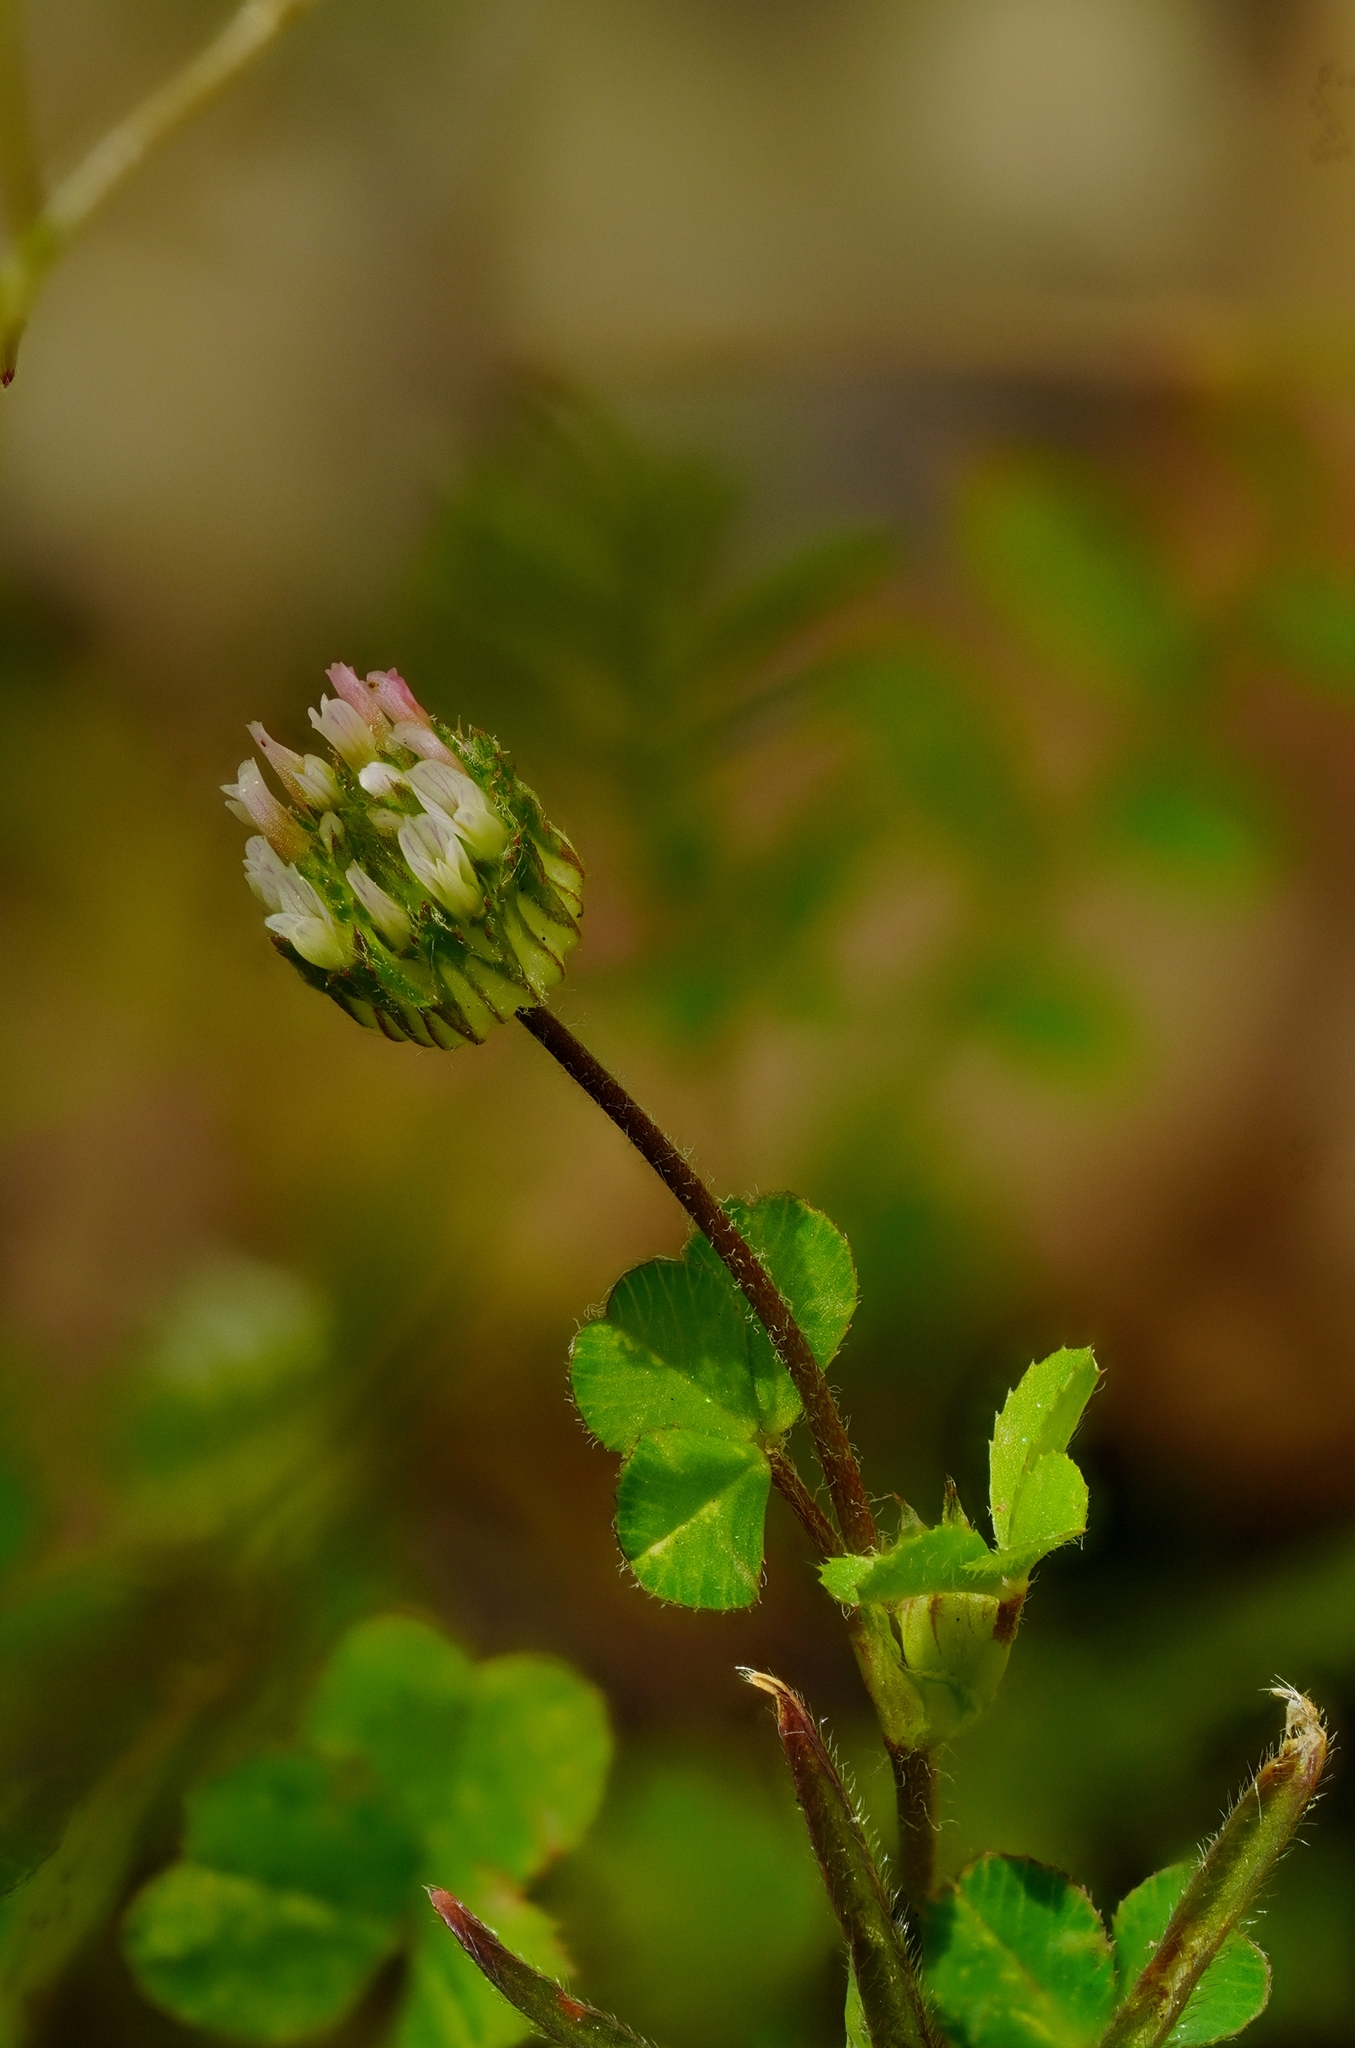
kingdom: Plantae
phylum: Tracheophyta
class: Magnoliopsida
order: Fabales
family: Fabaceae
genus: Trifolium
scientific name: Trifolium microdon
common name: Thimble clover
